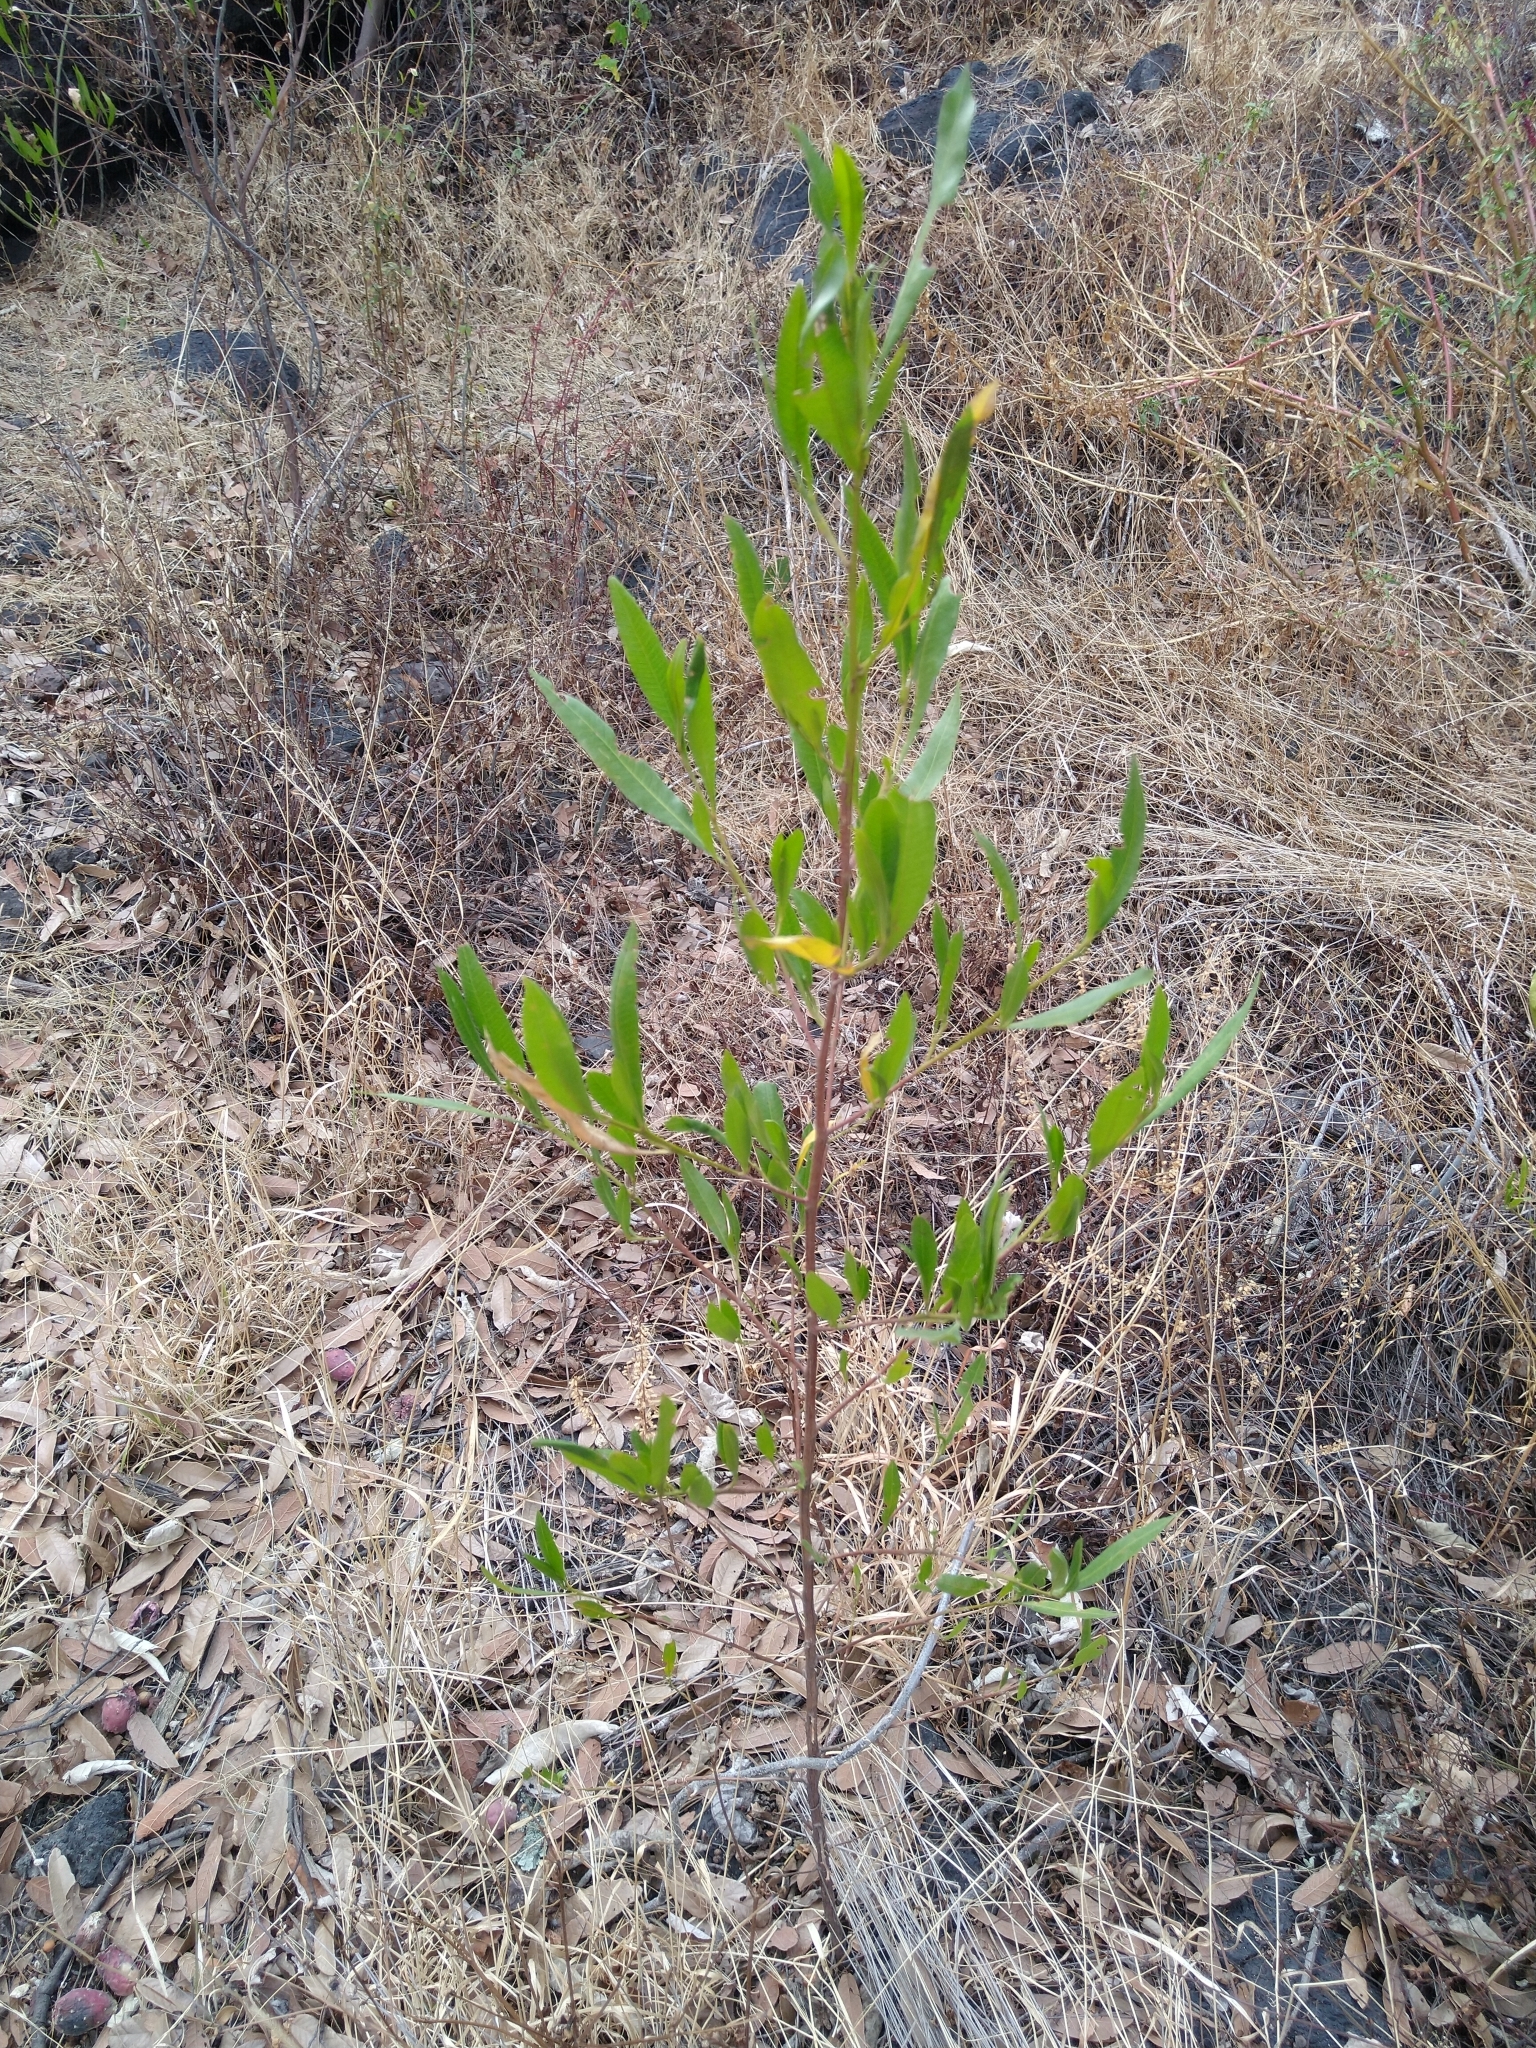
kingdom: Plantae
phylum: Tracheophyta
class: Magnoliopsida
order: Sapindales
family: Sapindaceae
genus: Dodonaea
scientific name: Dodonaea viscosa
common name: Hopbush
